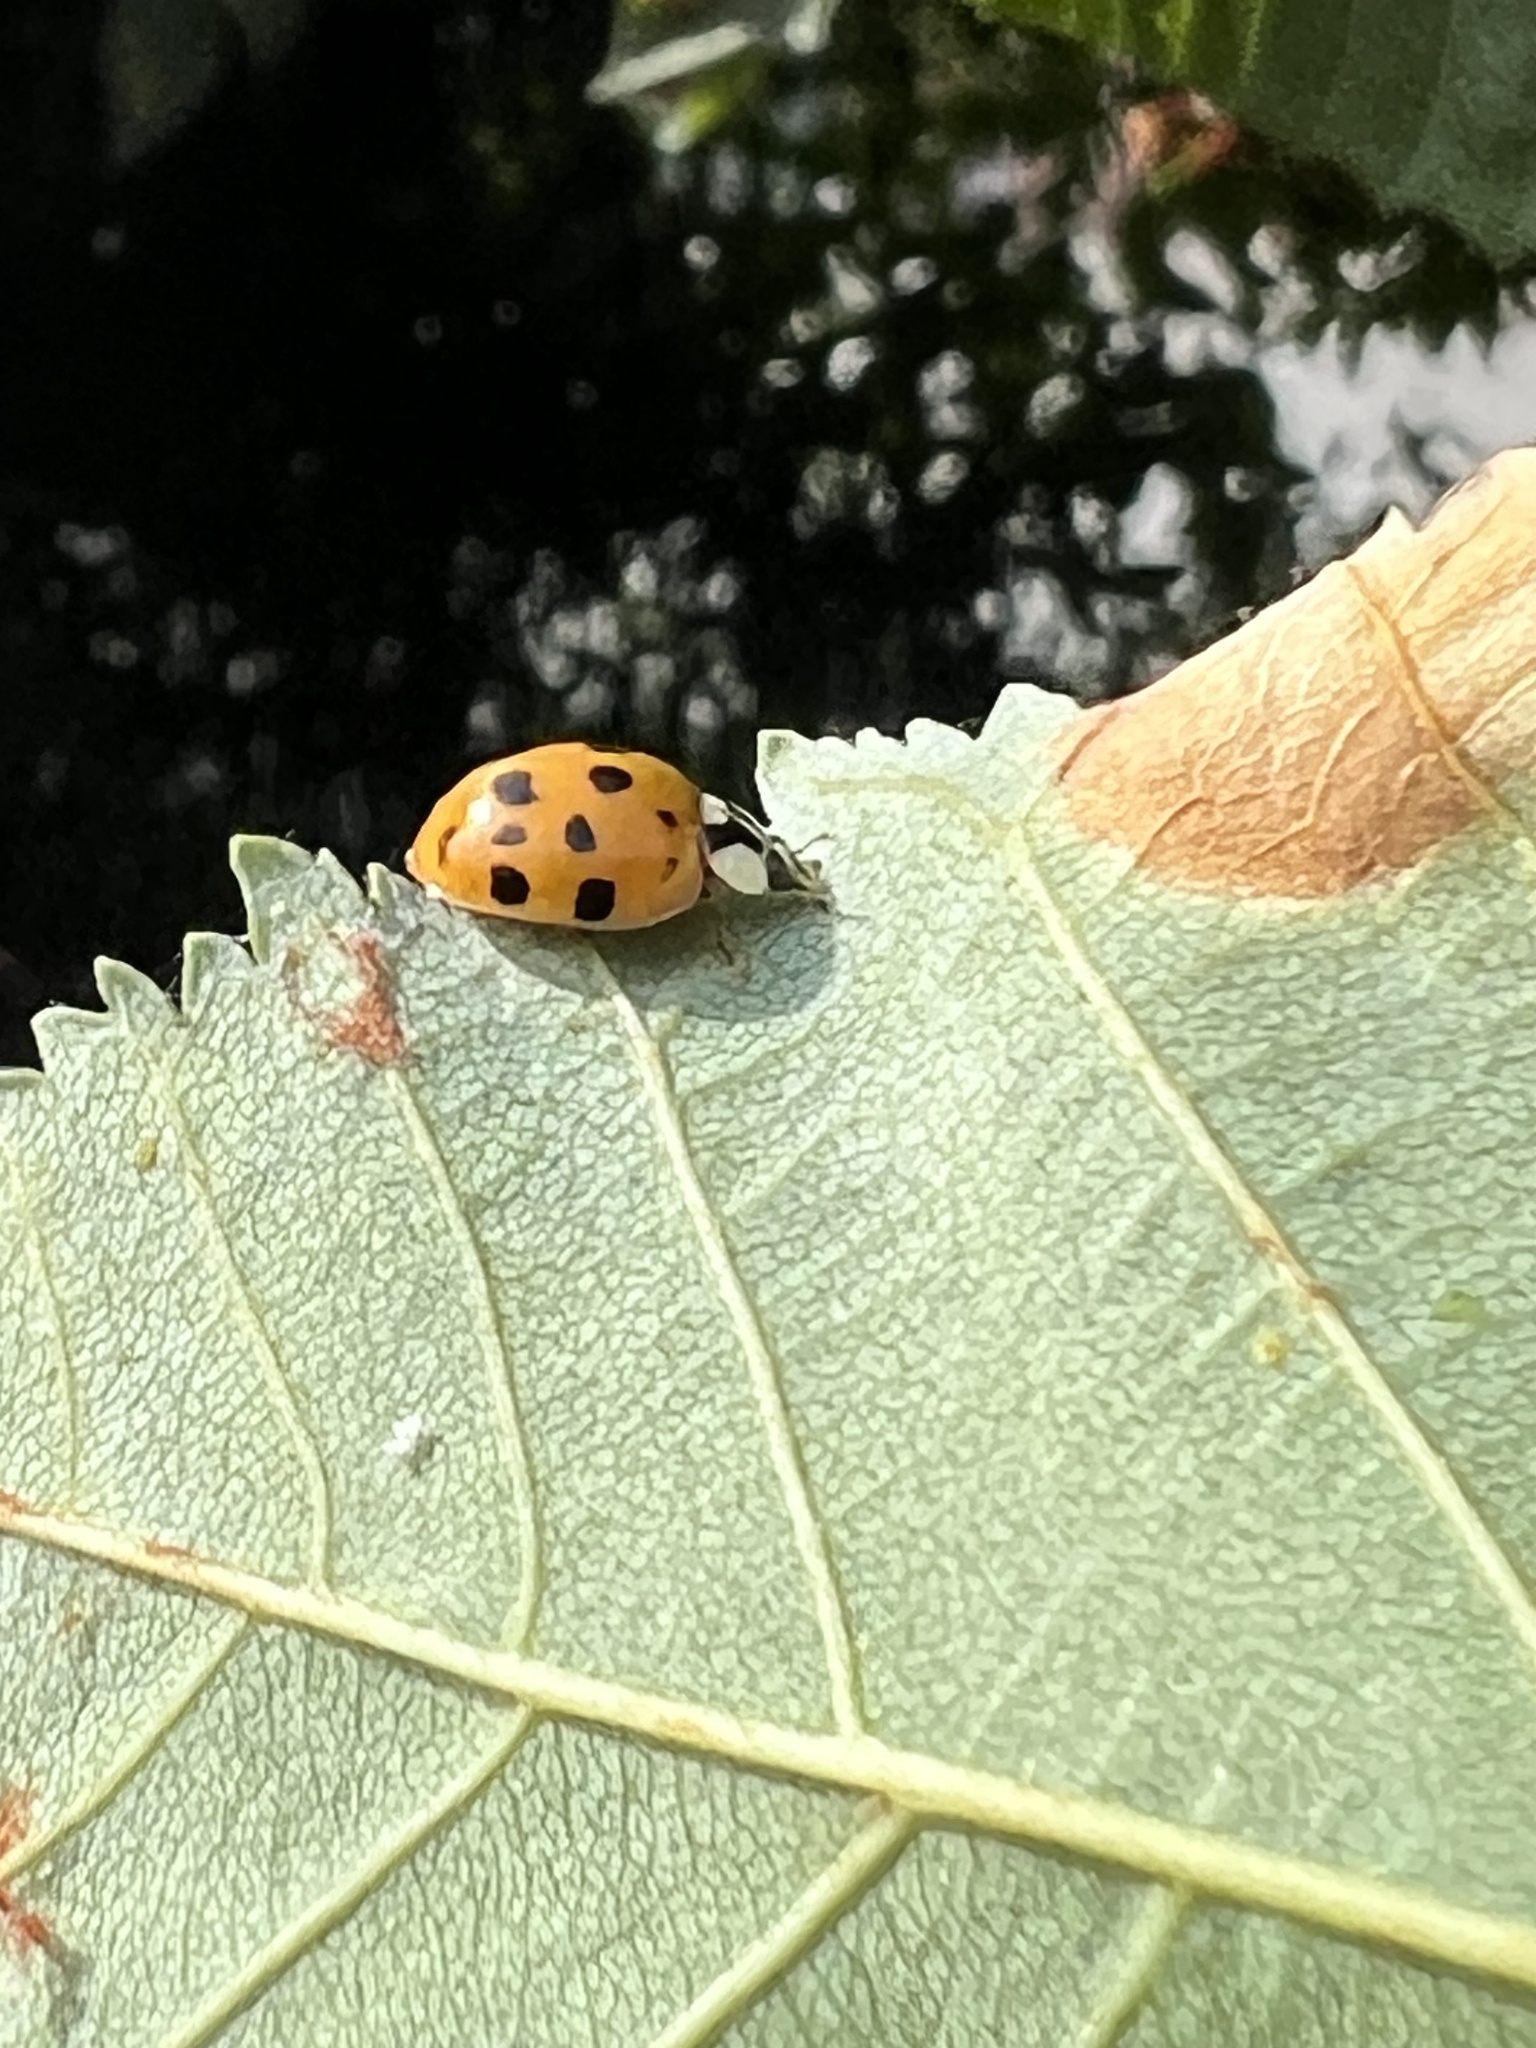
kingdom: Animalia
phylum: Arthropoda
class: Insecta
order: Coleoptera
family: Coccinellidae
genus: Harmonia
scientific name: Harmonia axyridis
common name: Harlequin ladybird
